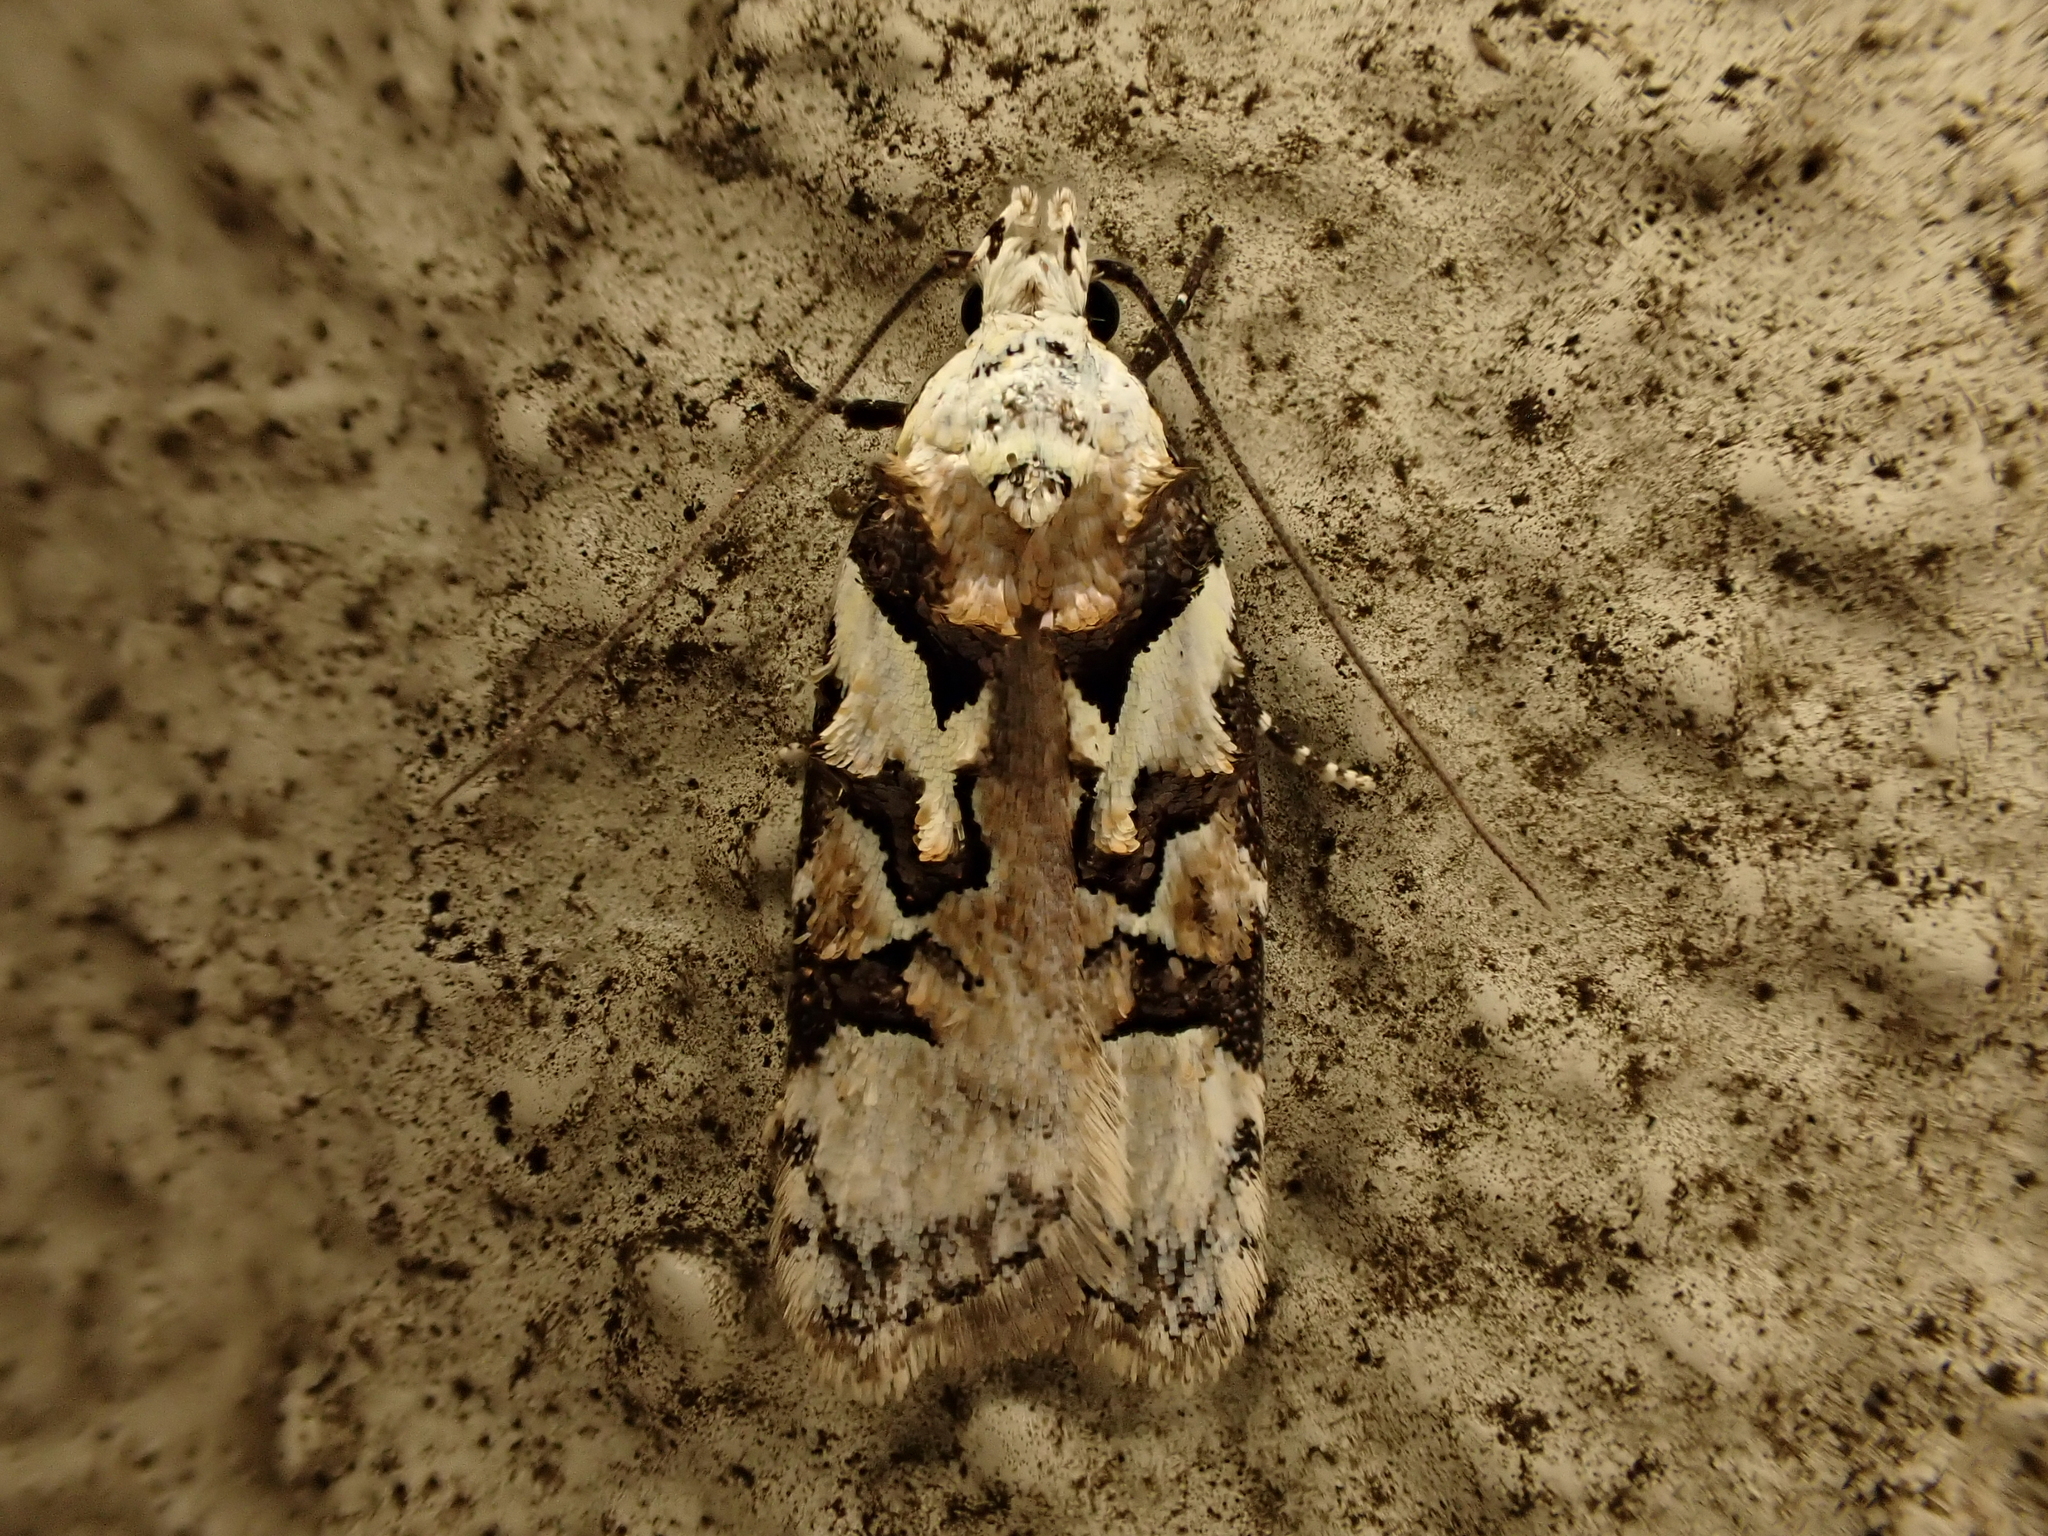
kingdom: Animalia
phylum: Arthropoda
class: Insecta
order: Lepidoptera
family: Oecophoridae
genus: Izatha
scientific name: Izatha epiphanes
